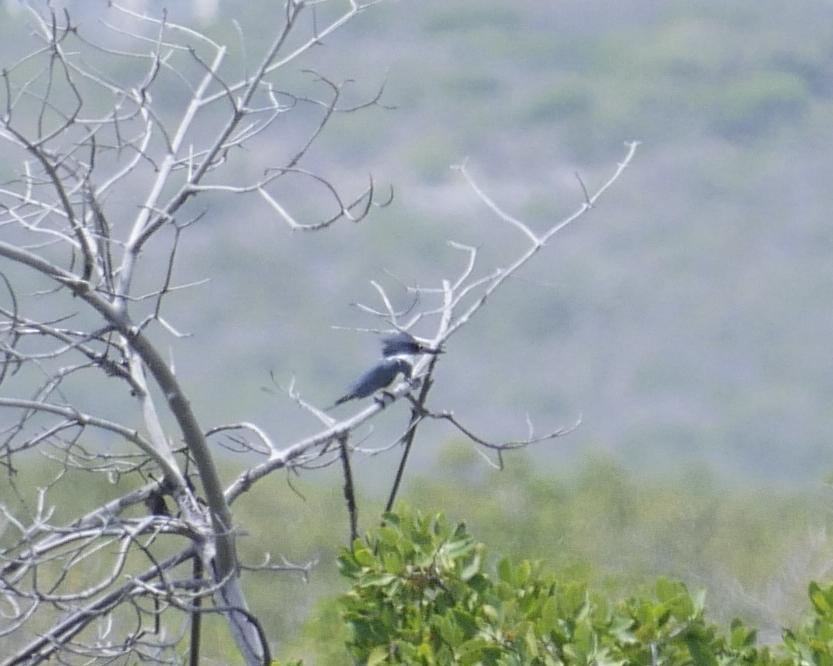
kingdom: Animalia
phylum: Chordata
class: Aves
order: Coraciiformes
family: Alcedinidae
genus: Megaceryle
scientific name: Megaceryle alcyon
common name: Belted kingfisher
